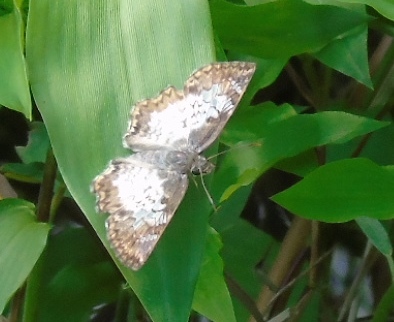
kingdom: Animalia
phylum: Arthropoda
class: Insecta
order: Lepidoptera
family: Hesperiidae
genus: Antigonus
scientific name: Antigonus emorsa
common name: White spurwing
